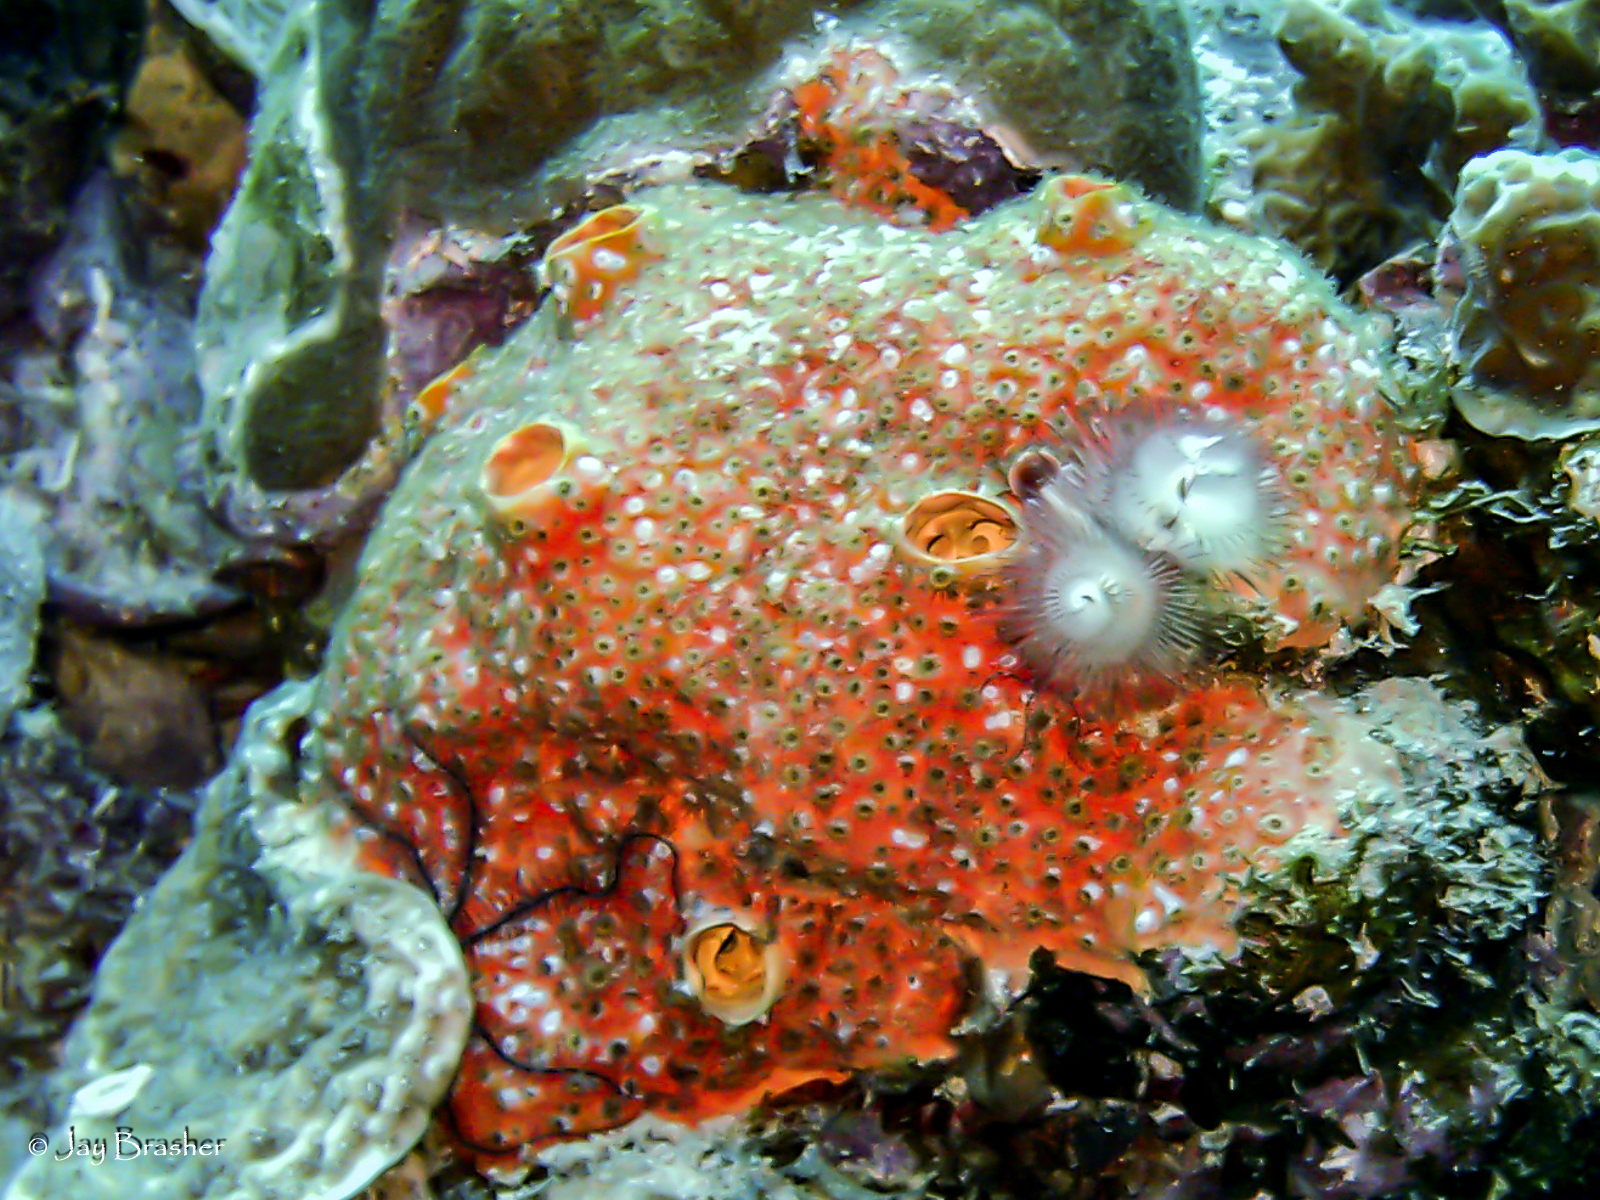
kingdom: Animalia
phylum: Porifera
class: Demospongiae
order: Clionaida
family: Clionaidae
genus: Cliothosa
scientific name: Cliothosa delitrix
